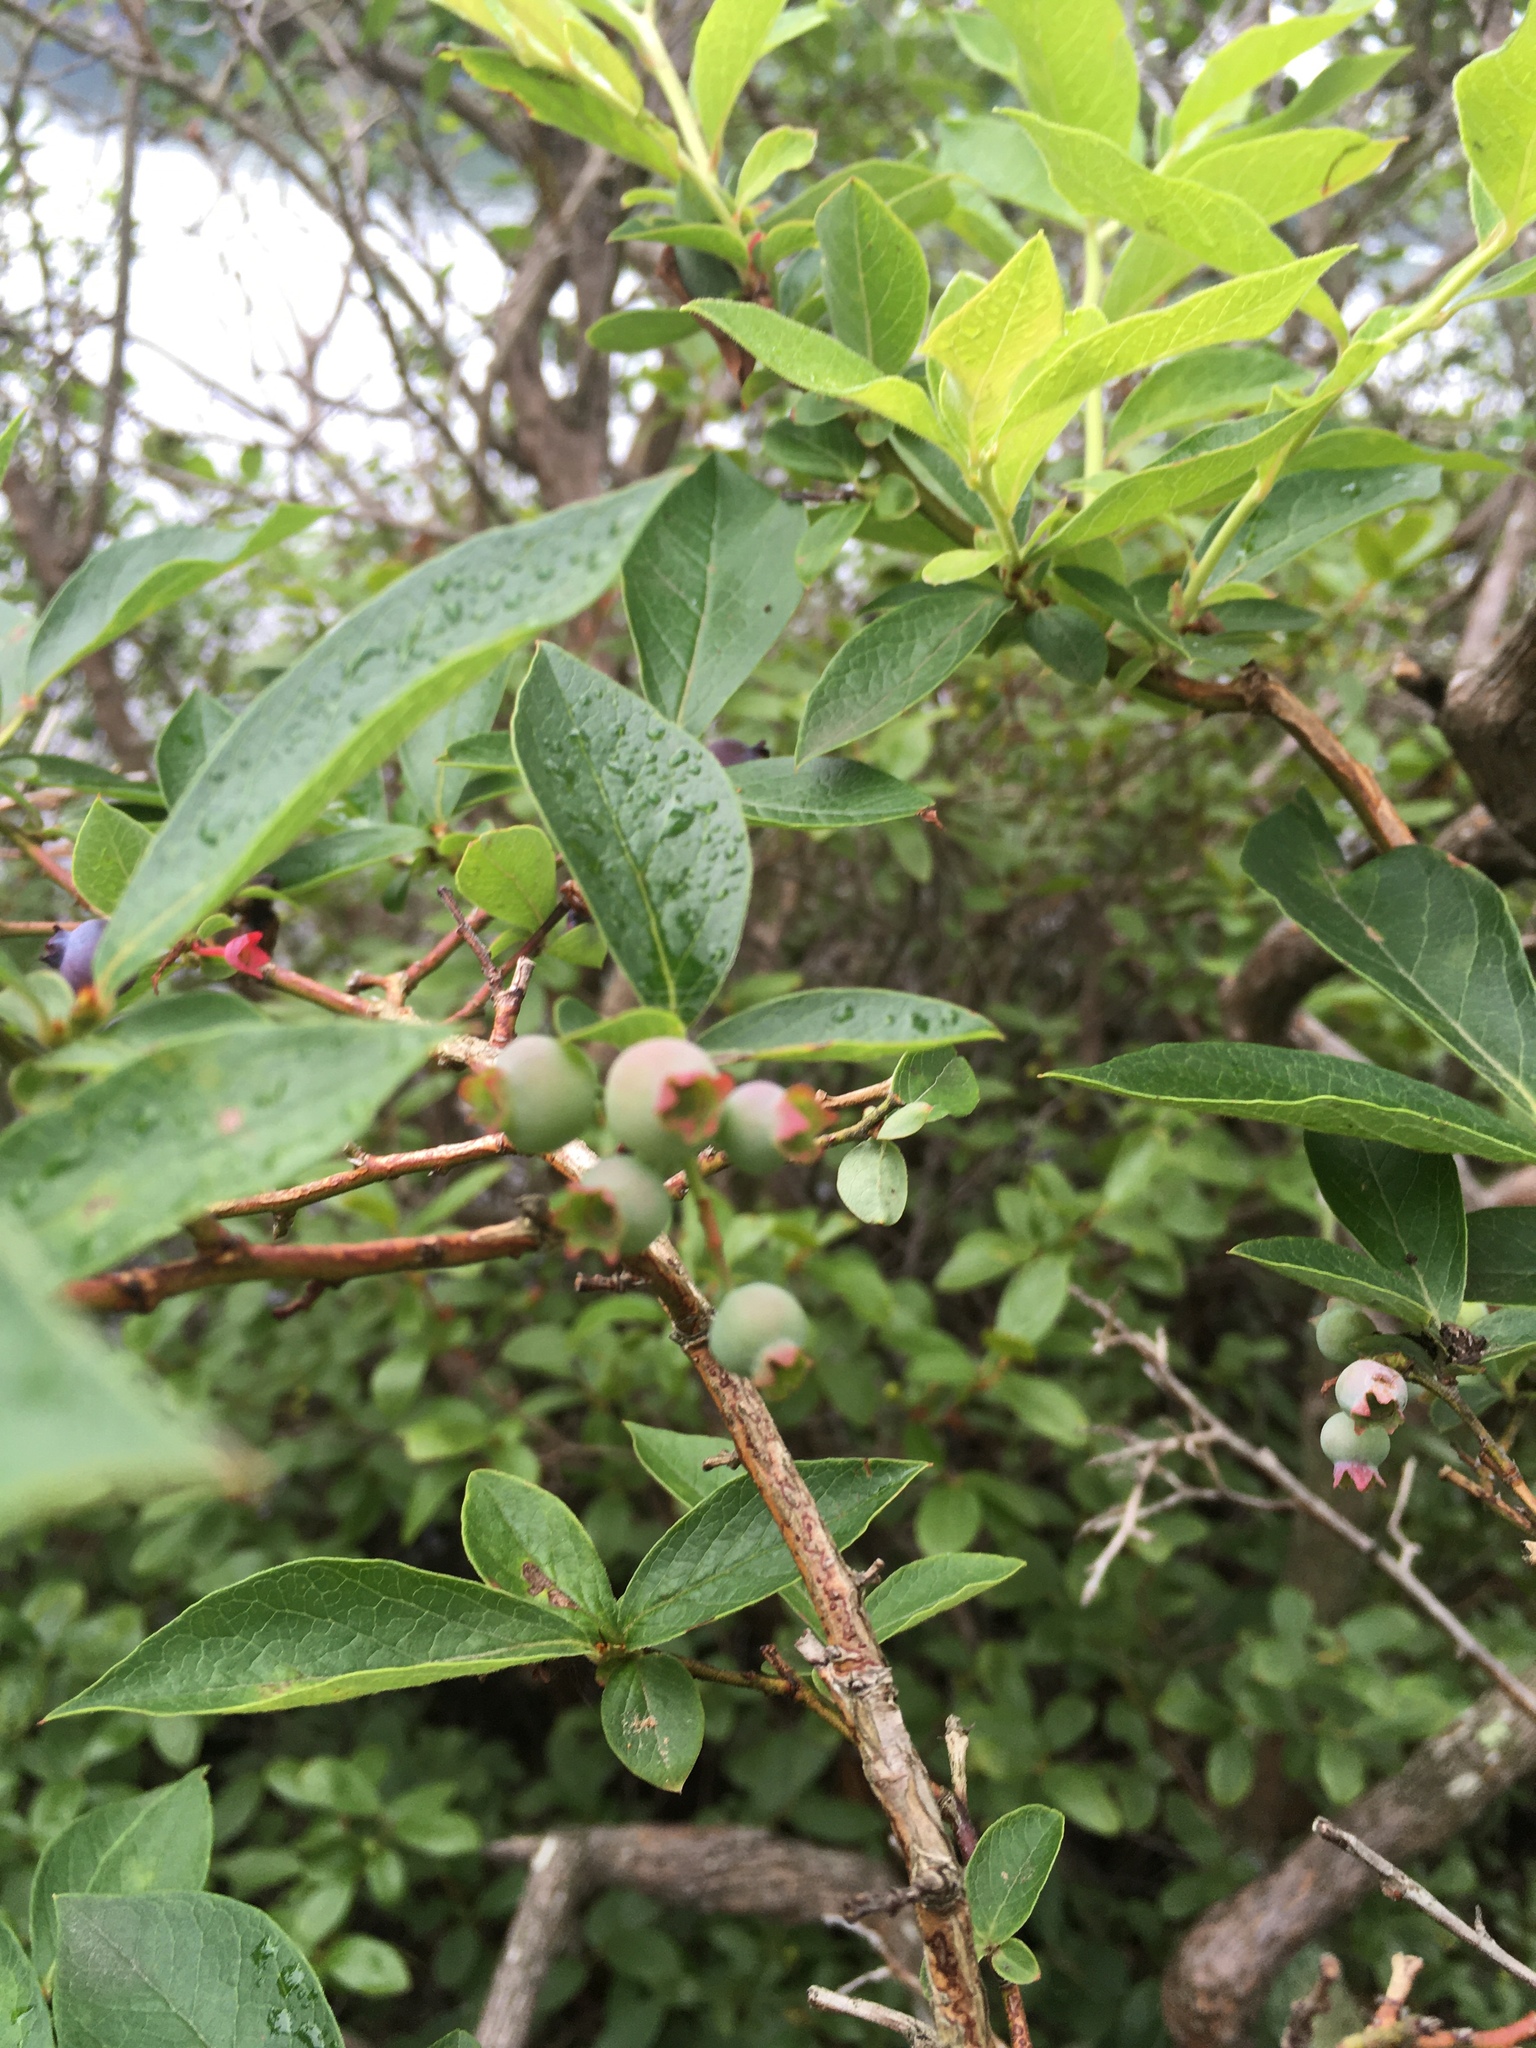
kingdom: Plantae
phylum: Tracheophyta
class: Magnoliopsida
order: Ericales
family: Ericaceae
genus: Vaccinium
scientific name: Vaccinium corymbosum
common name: Blueberry
